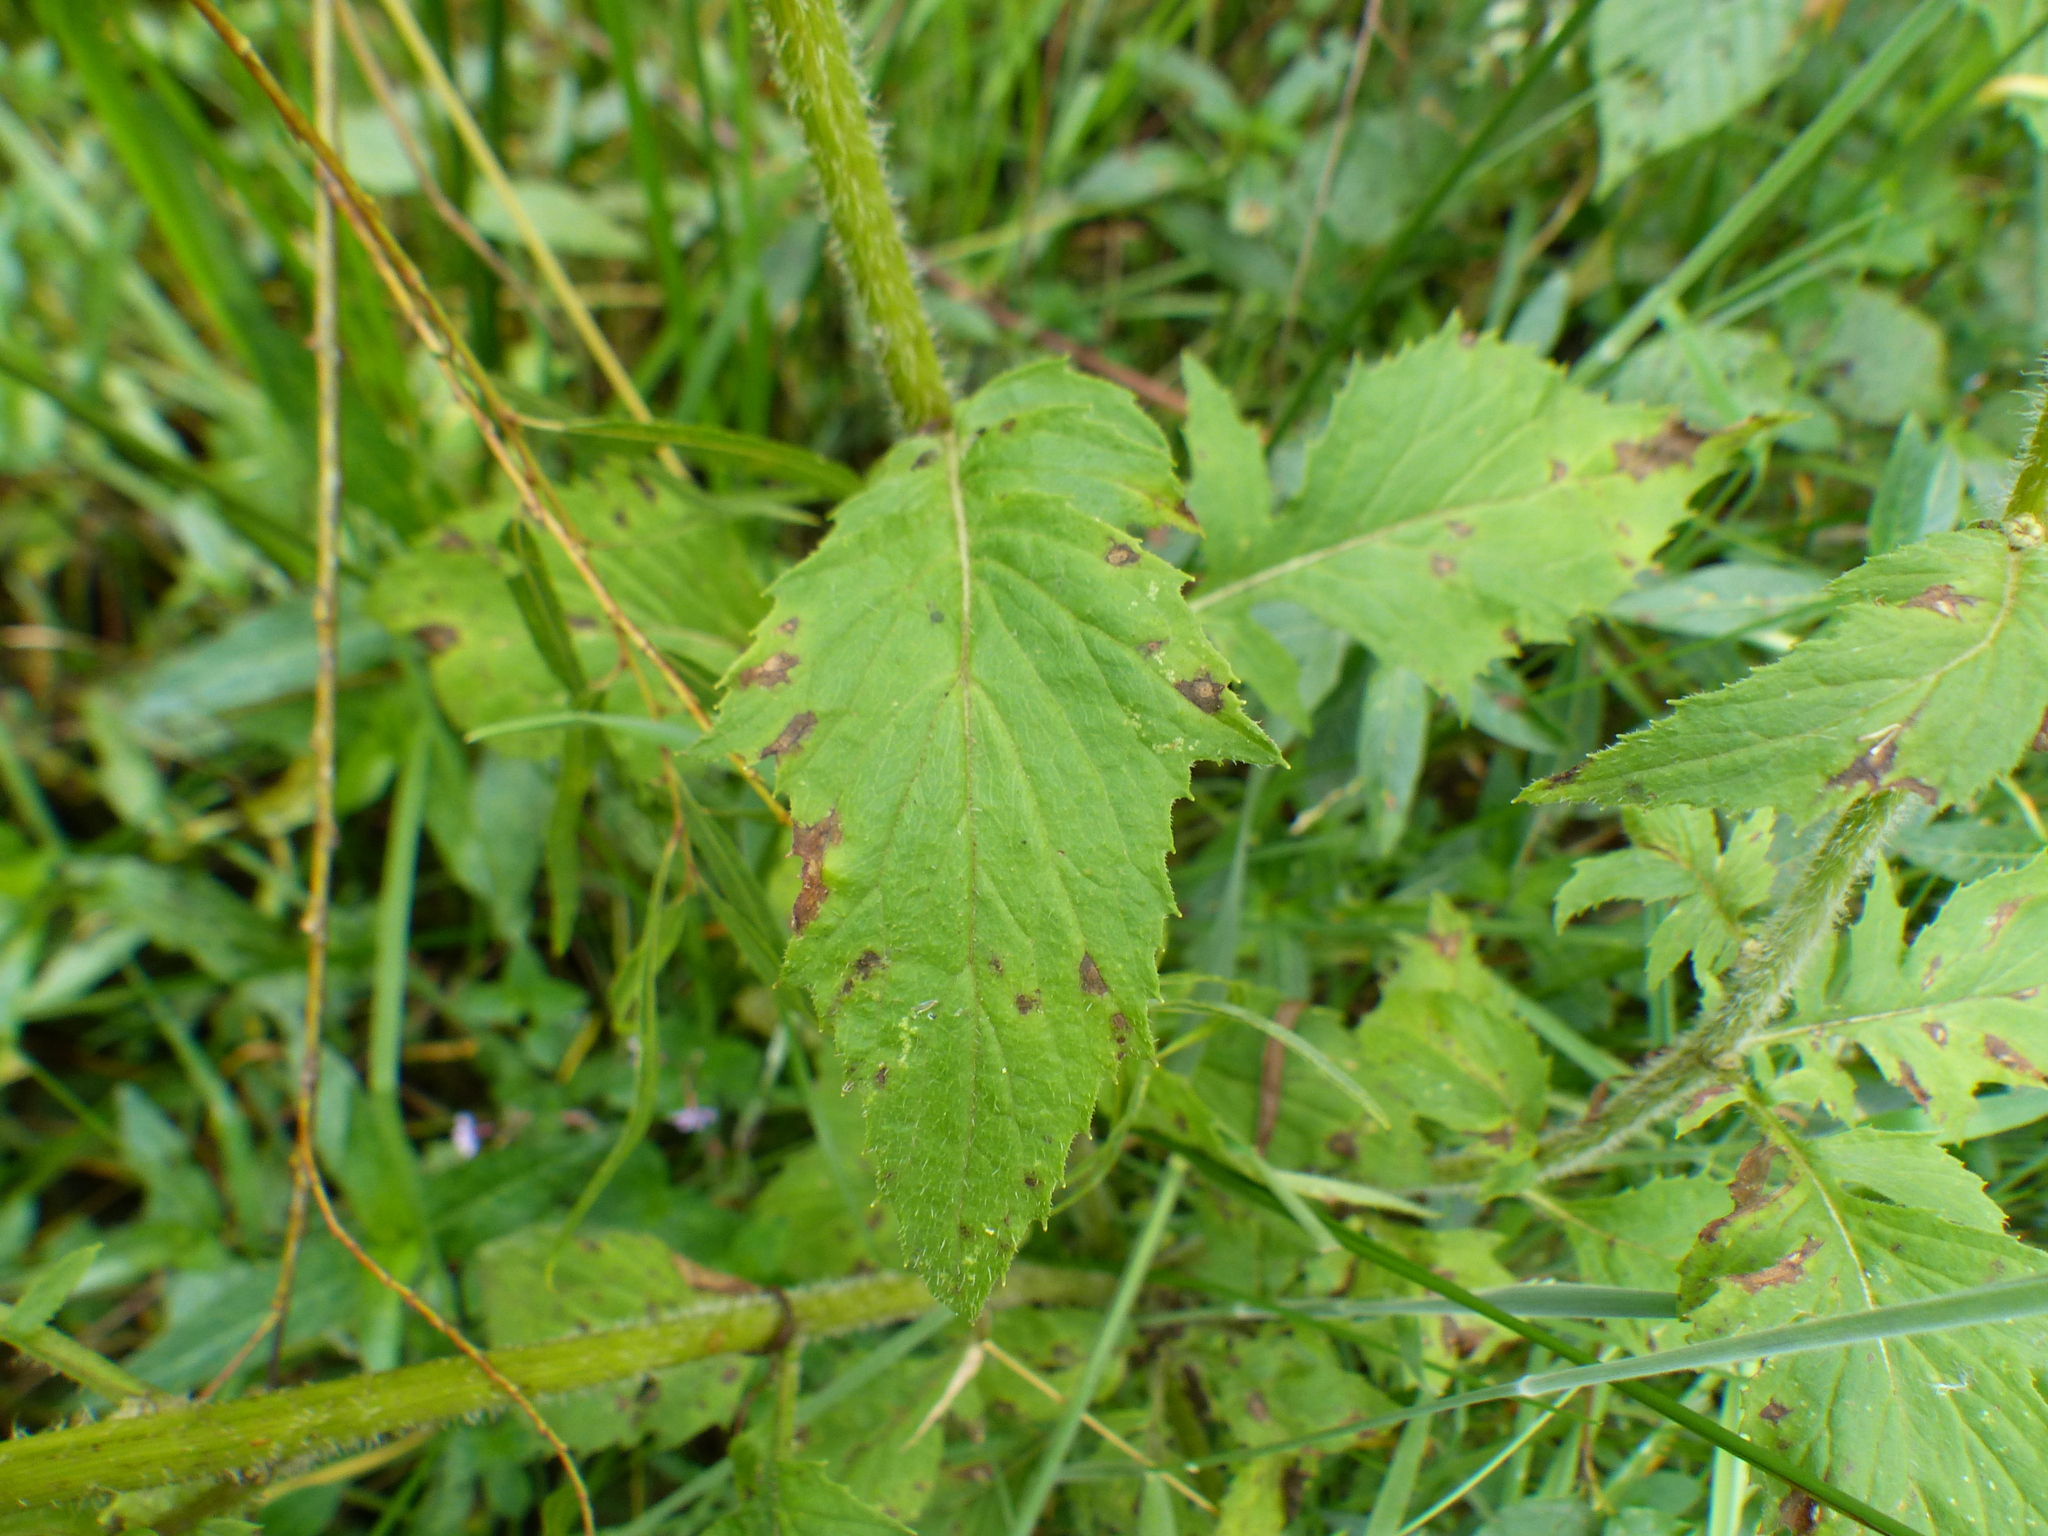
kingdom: Plantae
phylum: Tracheophyta
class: Magnoliopsida
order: Asterales
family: Asteraceae
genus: Erechtites
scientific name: Erechtites valerianifolius
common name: Tropical burnweed
